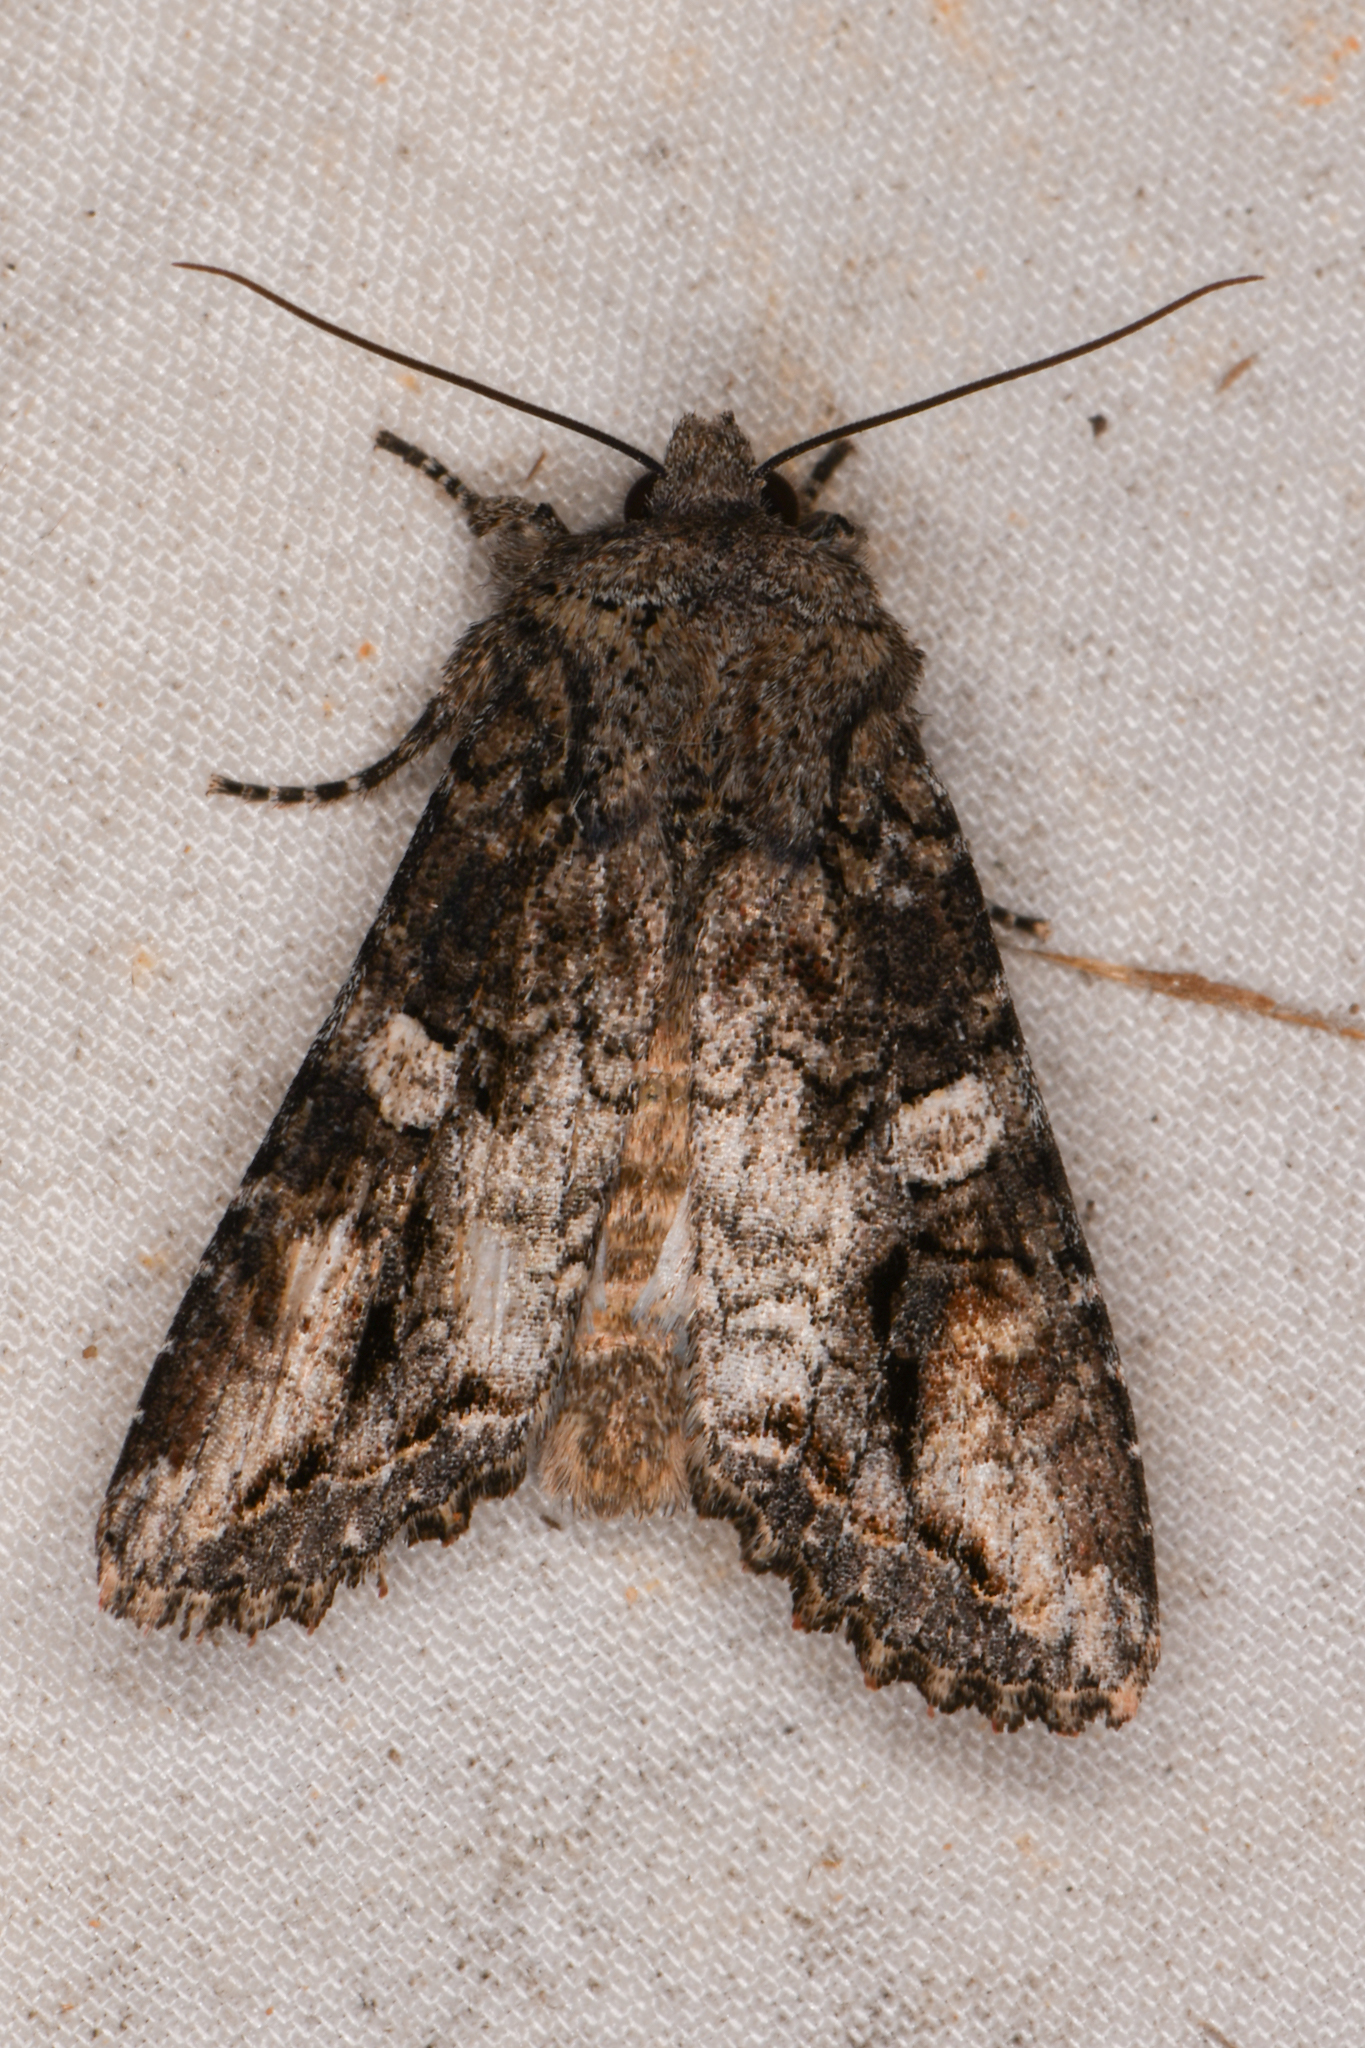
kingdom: Animalia
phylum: Arthropoda
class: Insecta
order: Lepidoptera
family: Noctuidae
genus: Egira
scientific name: Egira perlubens
